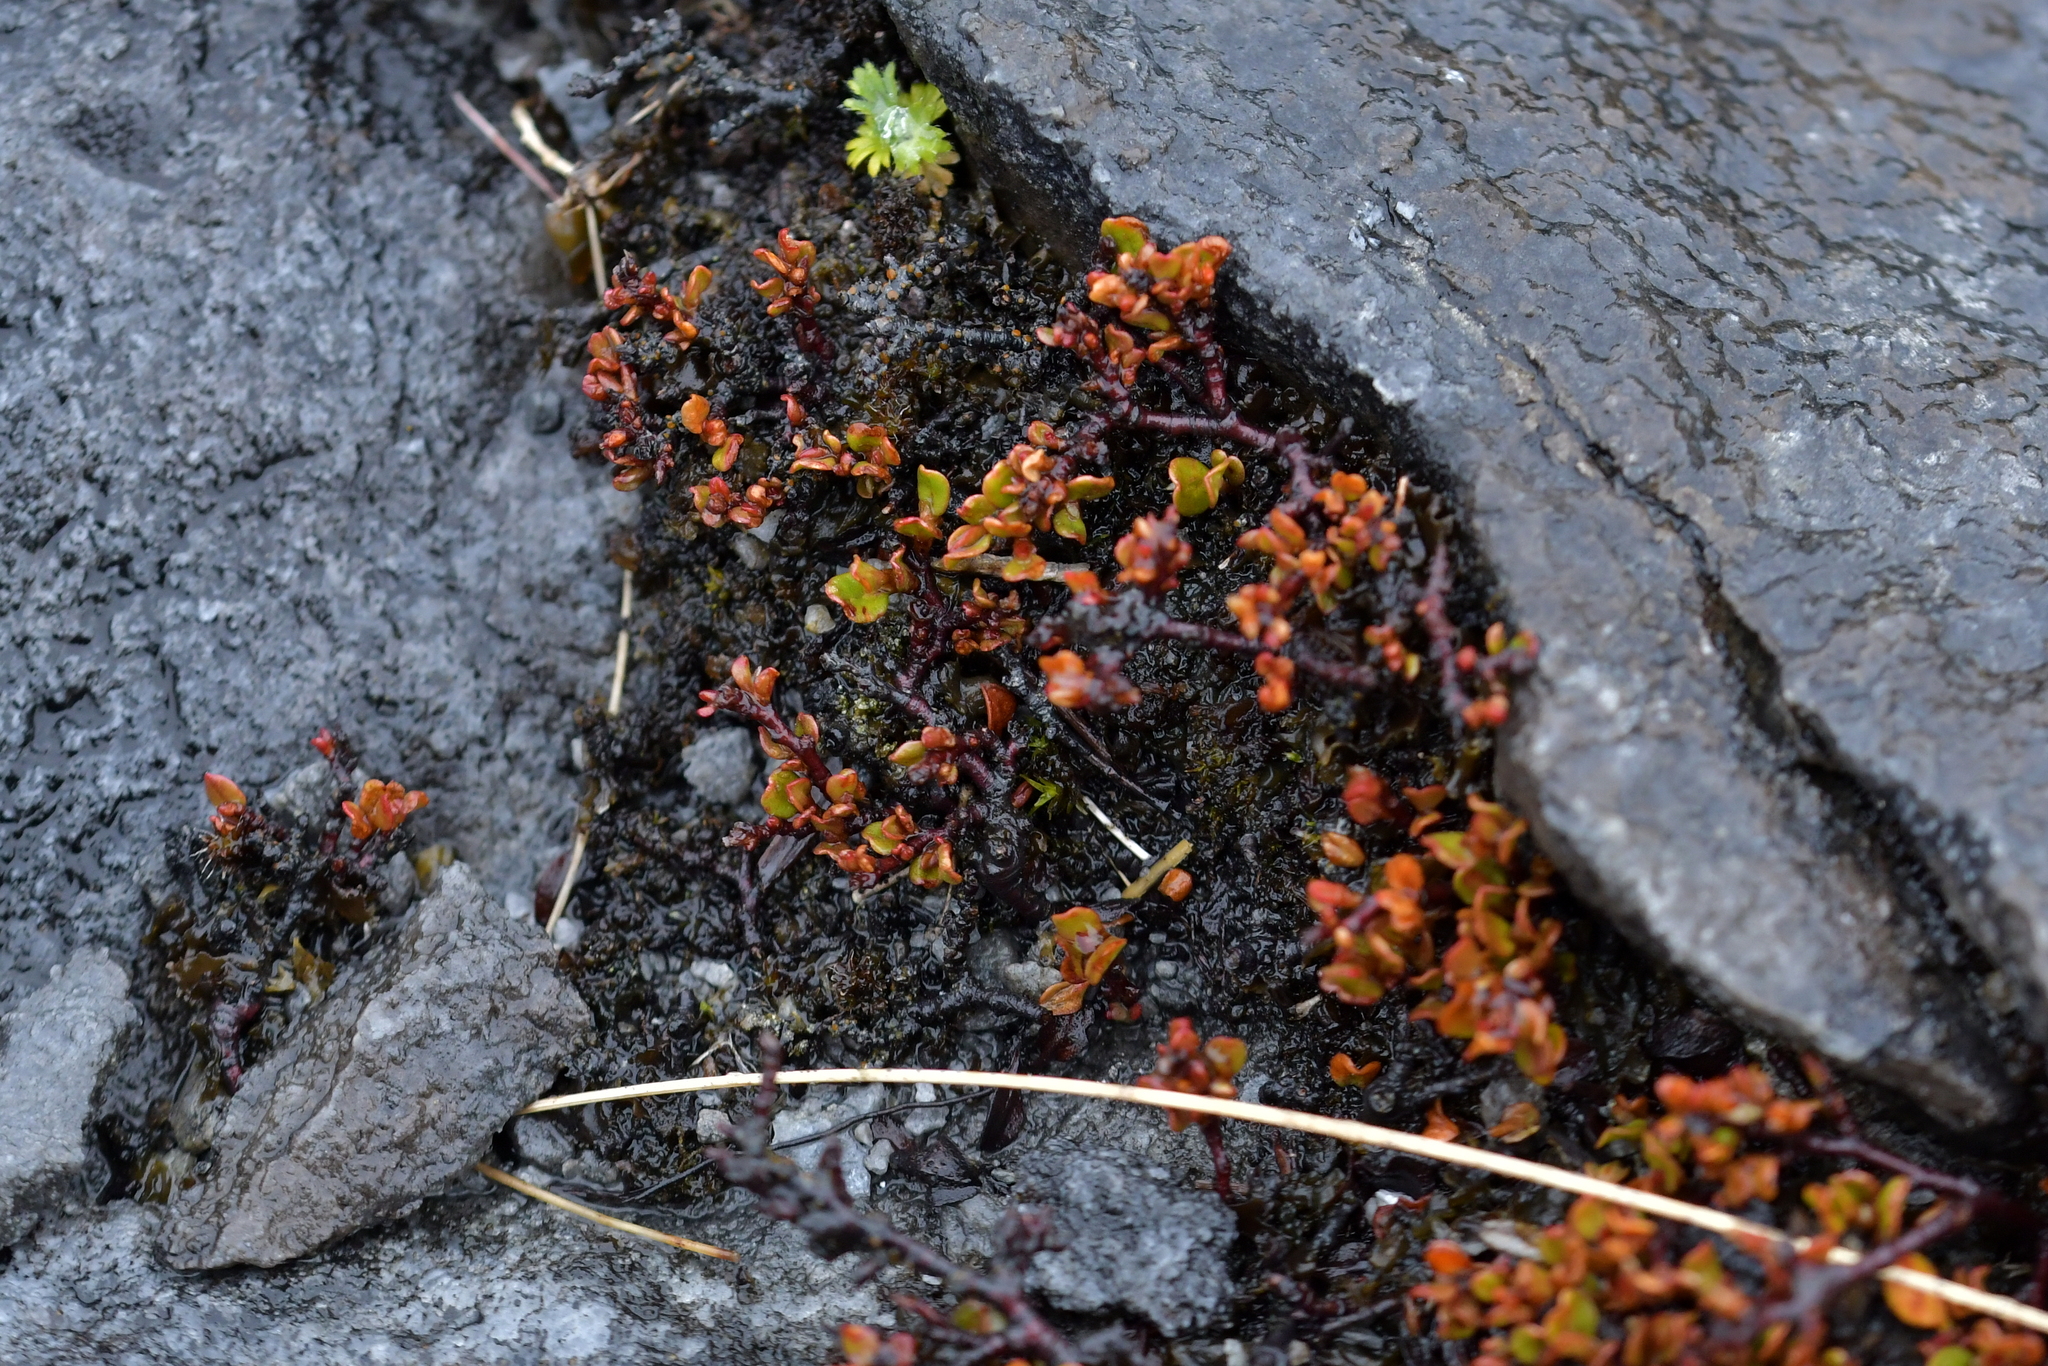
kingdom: Plantae
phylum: Tracheophyta
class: Magnoliopsida
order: Caryophyllales
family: Polygonaceae
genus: Muehlenbeckia
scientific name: Muehlenbeckia axillaris
